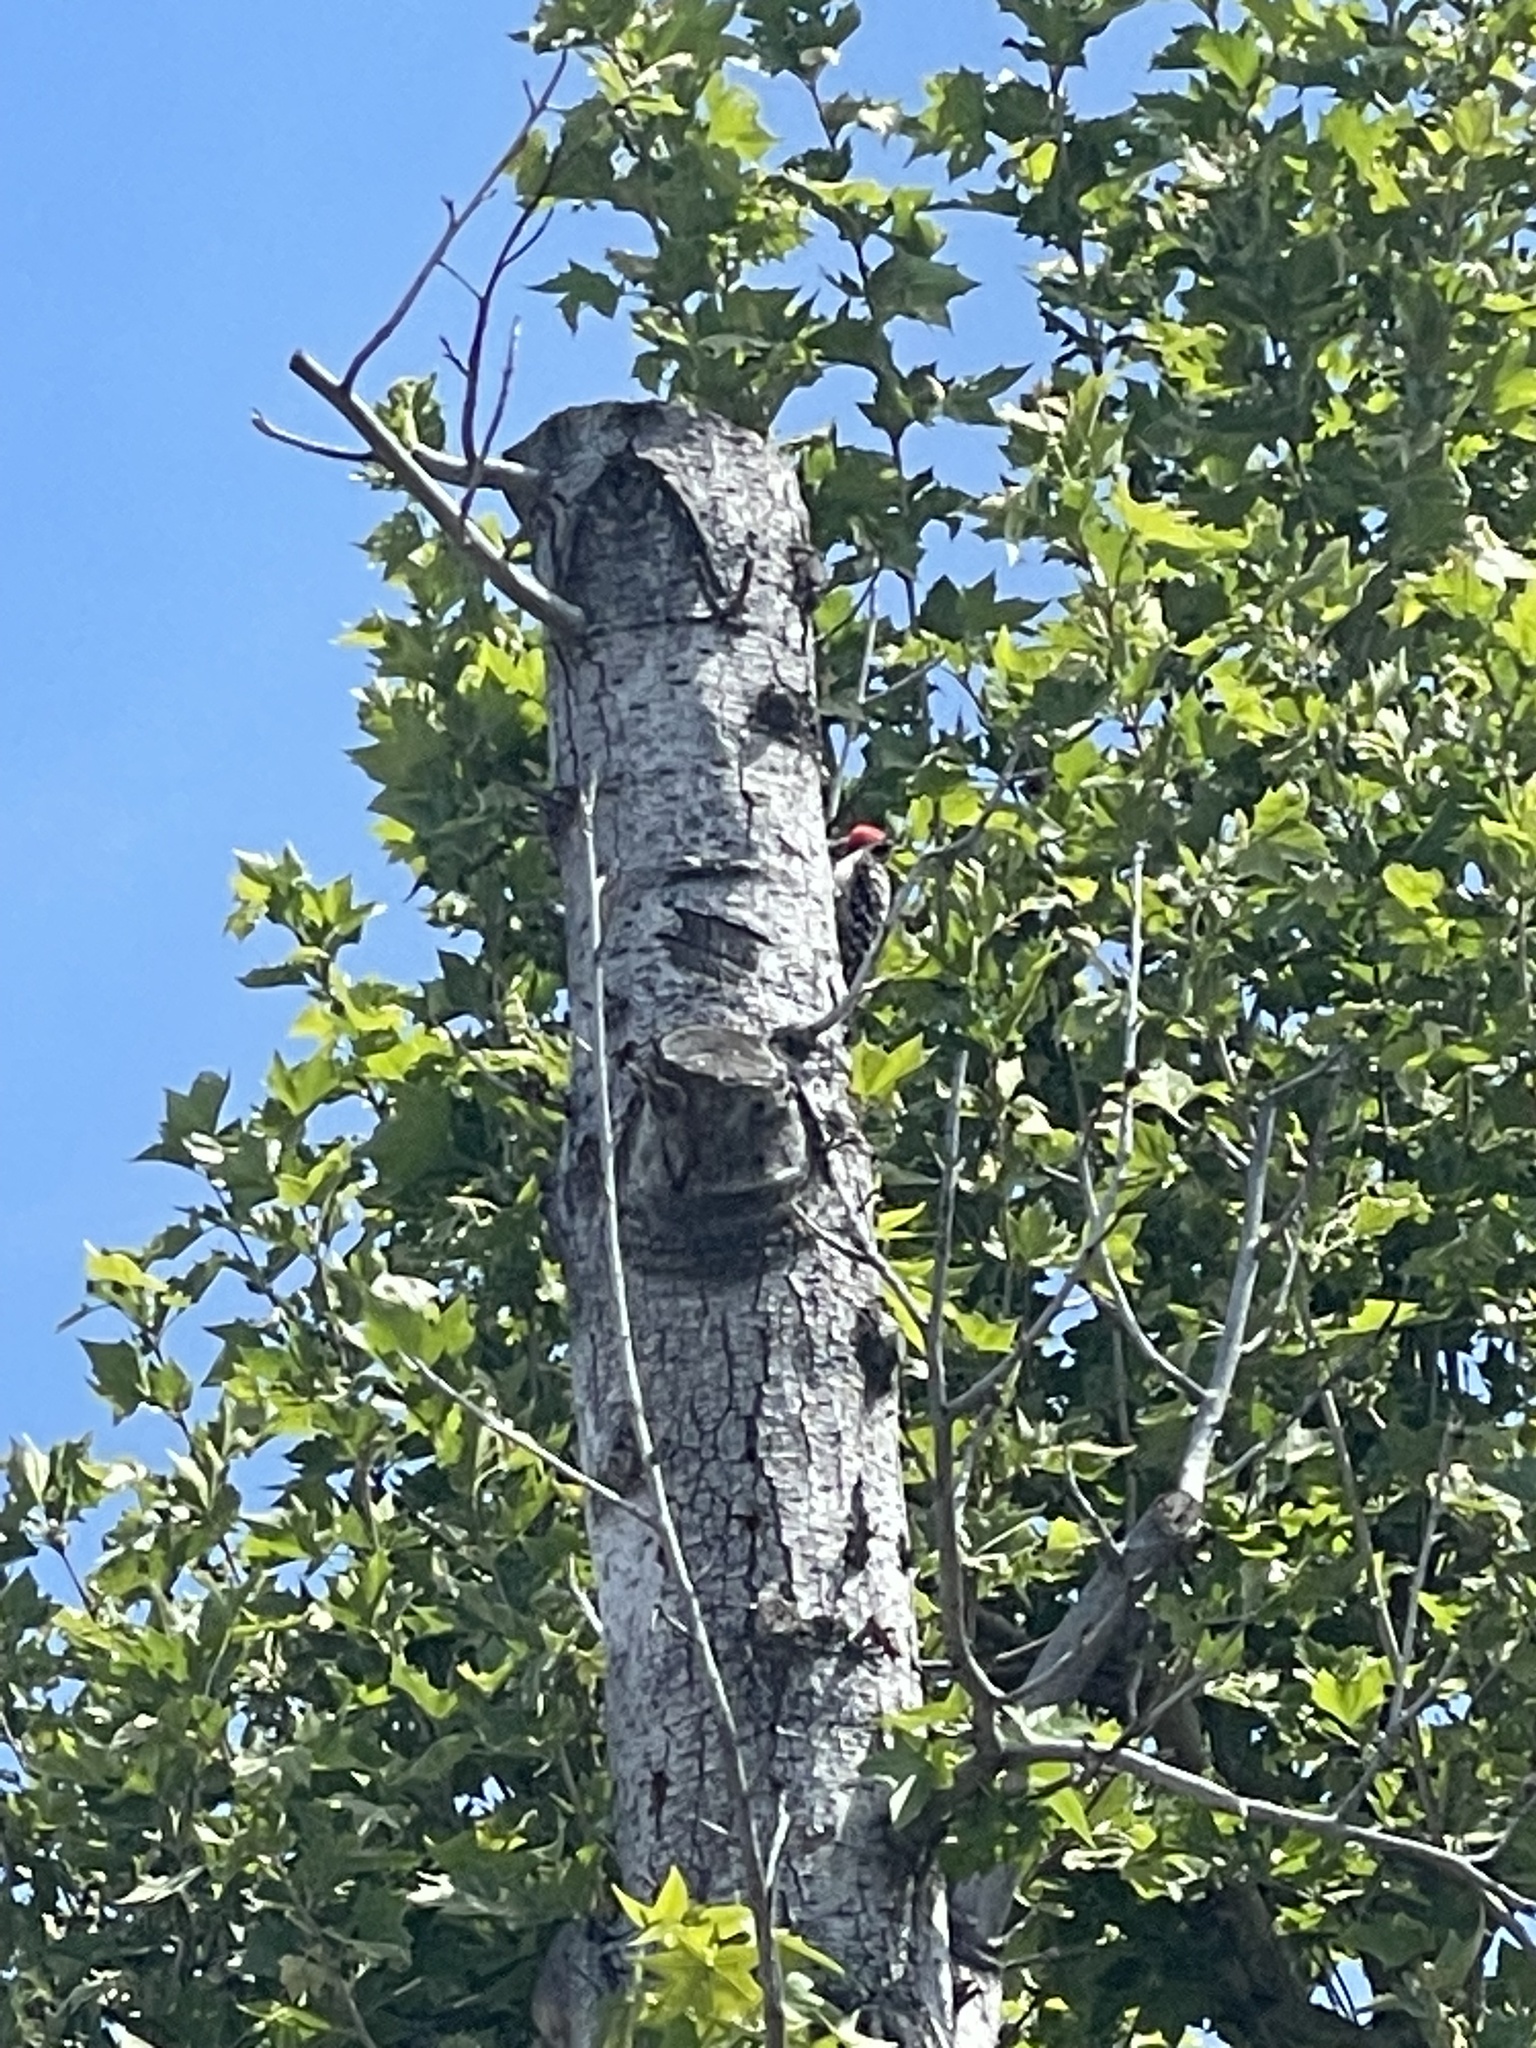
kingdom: Animalia
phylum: Chordata
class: Aves
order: Piciformes
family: Picidae
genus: Dryobates
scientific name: Dryobates nuttallii
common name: Nuttall's woodpecker
